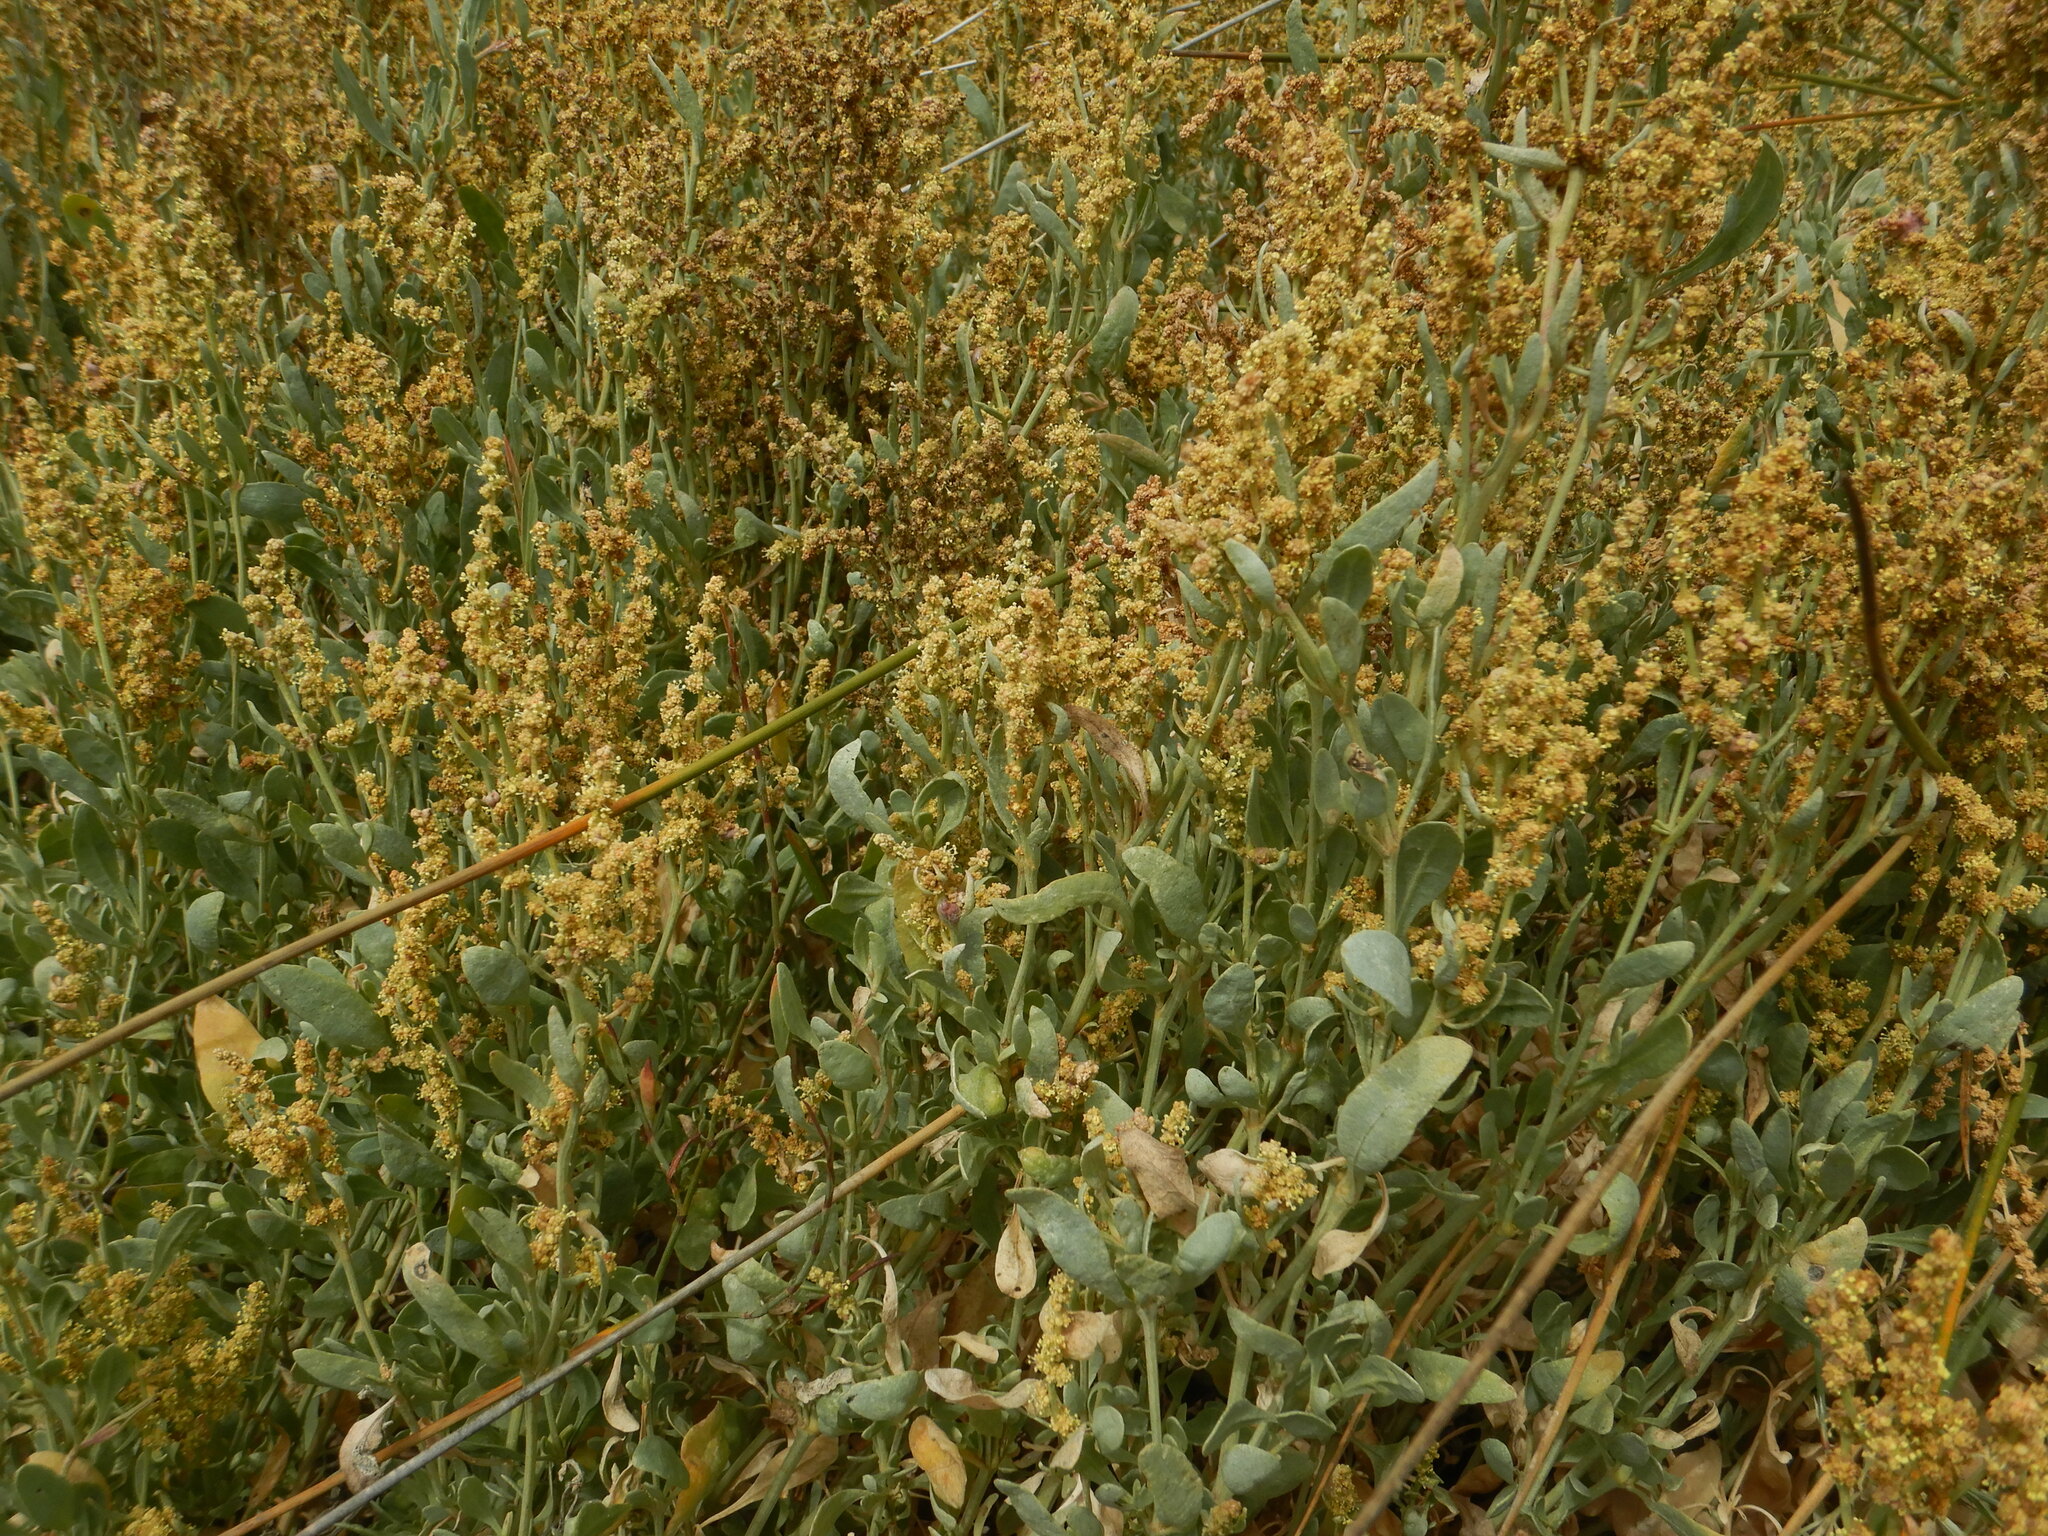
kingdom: Plantae
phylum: Tracheophyta
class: Magnoliopsida
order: Caryophyllales
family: Amaranthaceae
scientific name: Amaranthaceae
